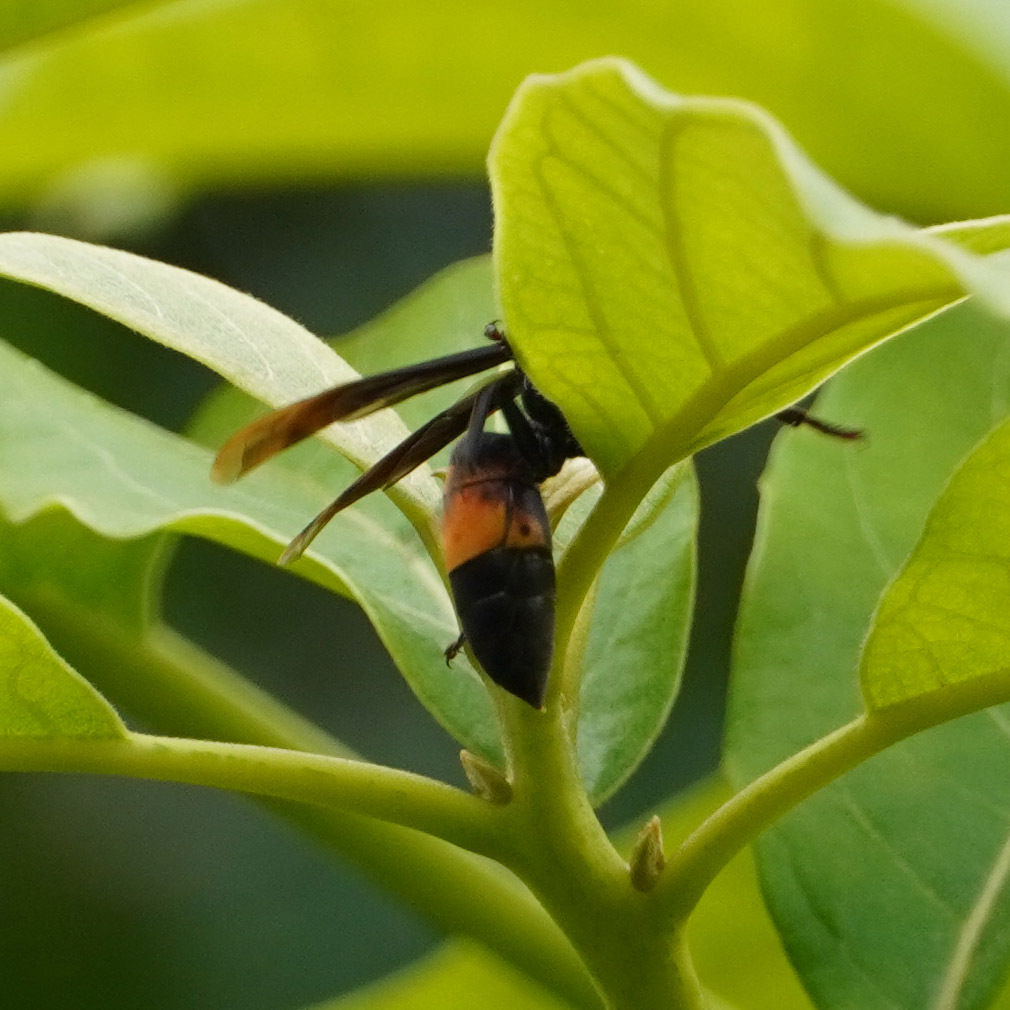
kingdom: Animalia
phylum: Arthropoda
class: Insecta
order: Hymenoptera
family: Vespidae
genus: Vespa
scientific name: Vespa affinis
